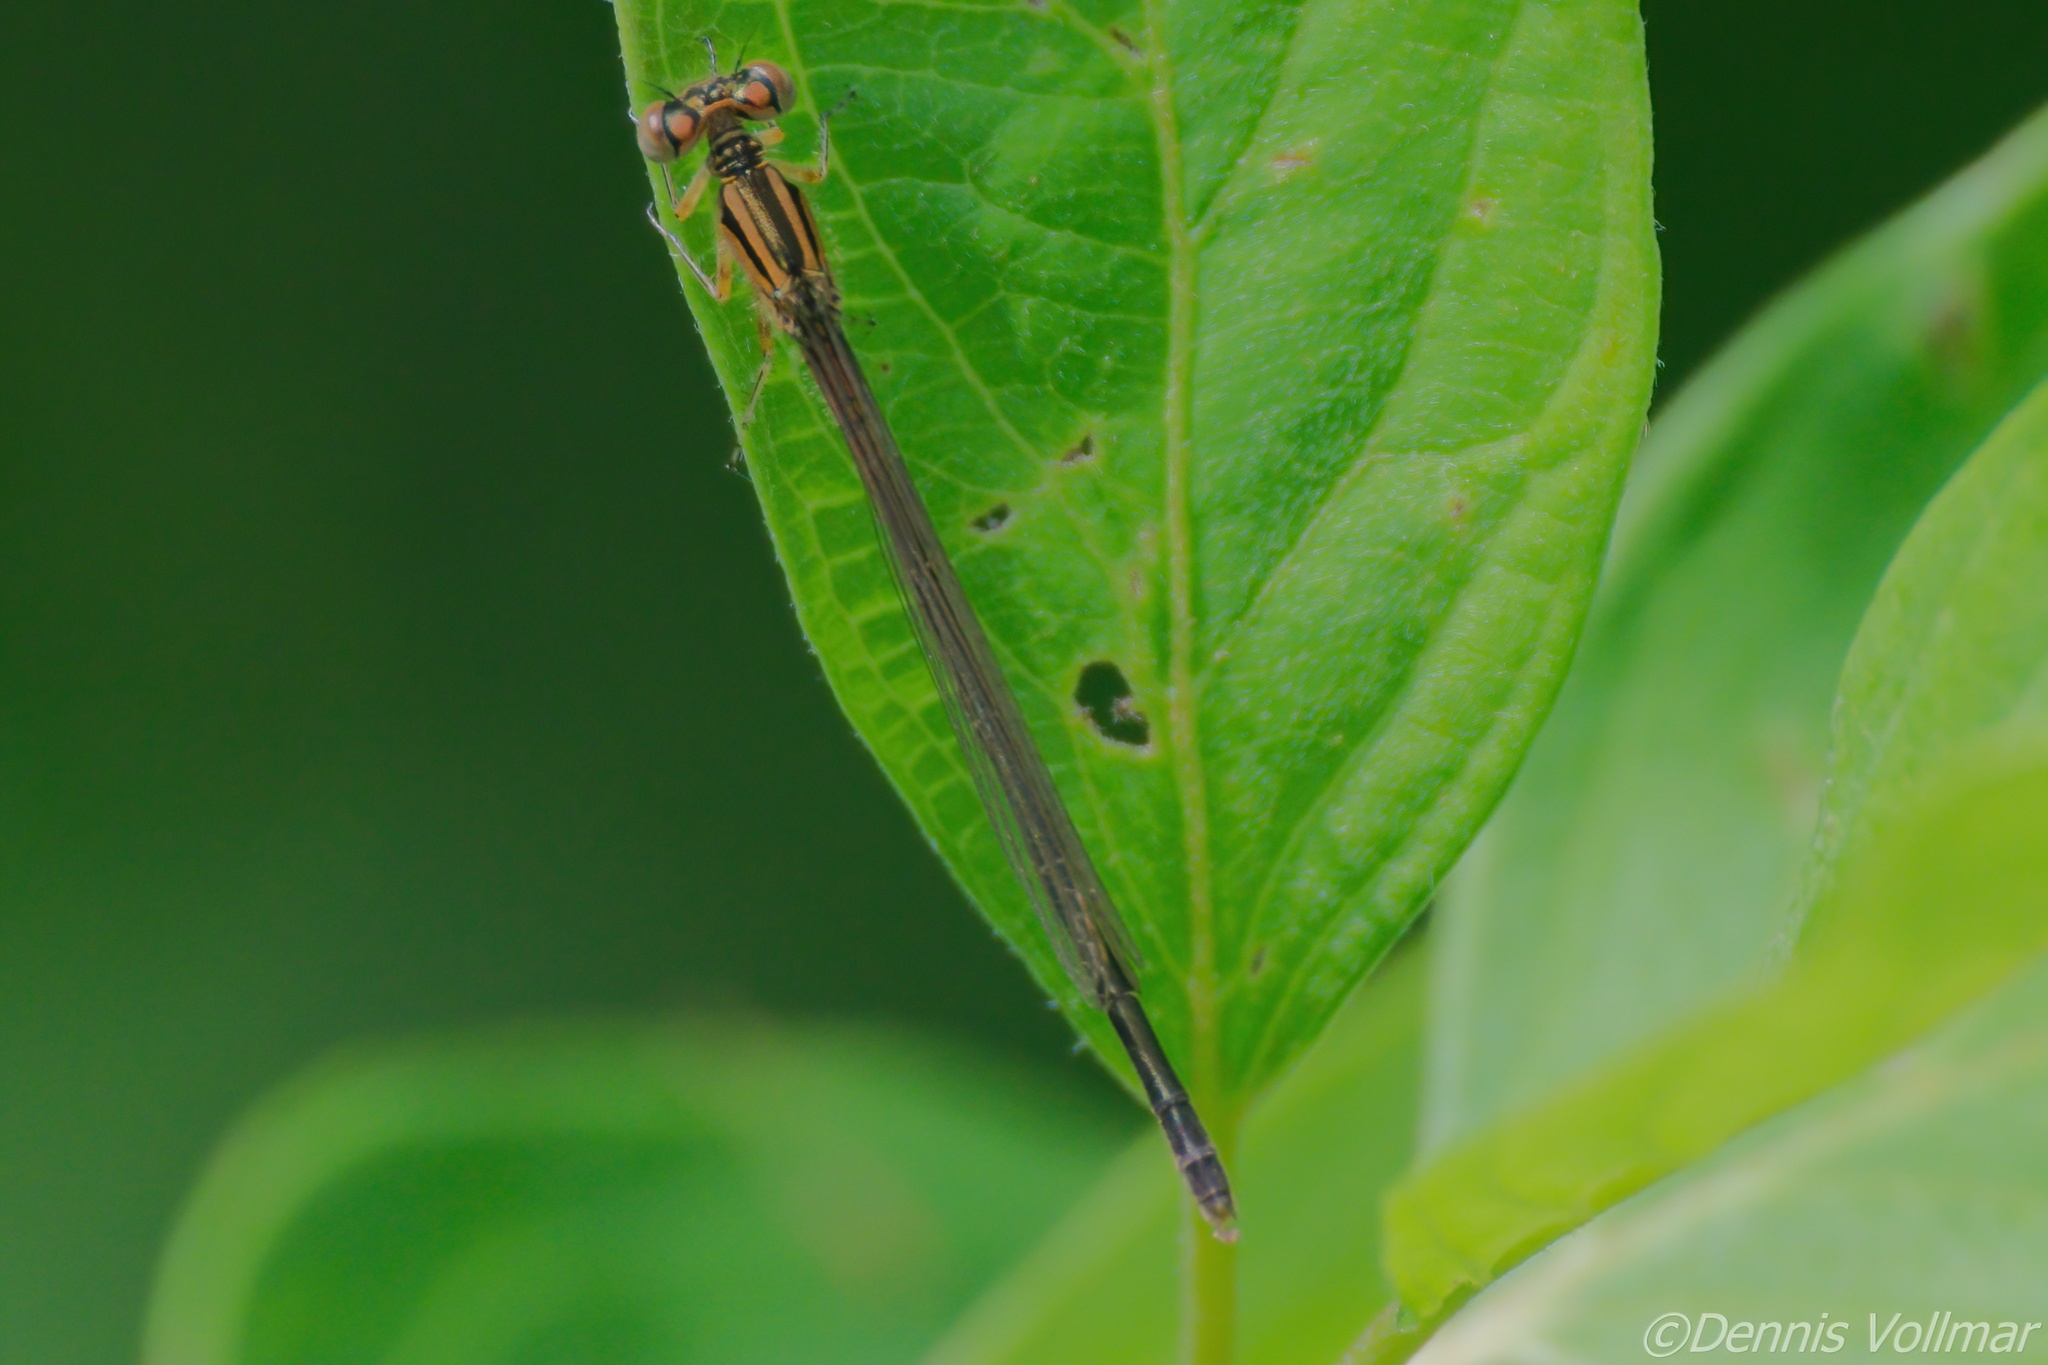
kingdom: Animalia
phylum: Arthropoda
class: Insecta
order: Odonata
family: Coenagrionidae
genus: Ischnura
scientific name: Ischnura verticalis
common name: Eastern forktail
